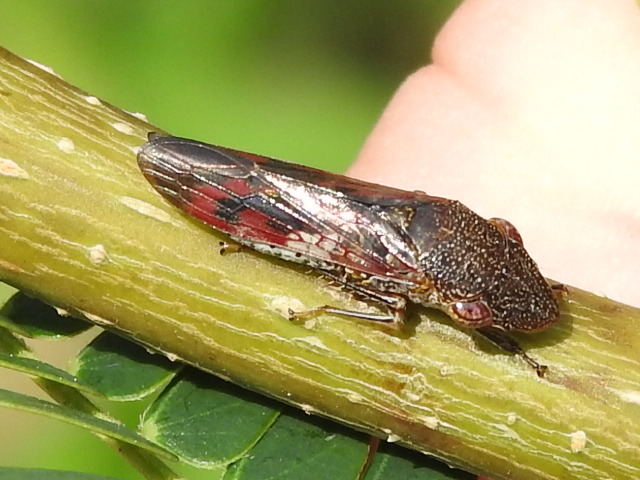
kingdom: Animalia
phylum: Arthropoda
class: Insecta
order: Hemiptera
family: Cicadellidae
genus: Homalodisca
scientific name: Homalodisca vitripennis
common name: Glassy-winged sharpshooter
